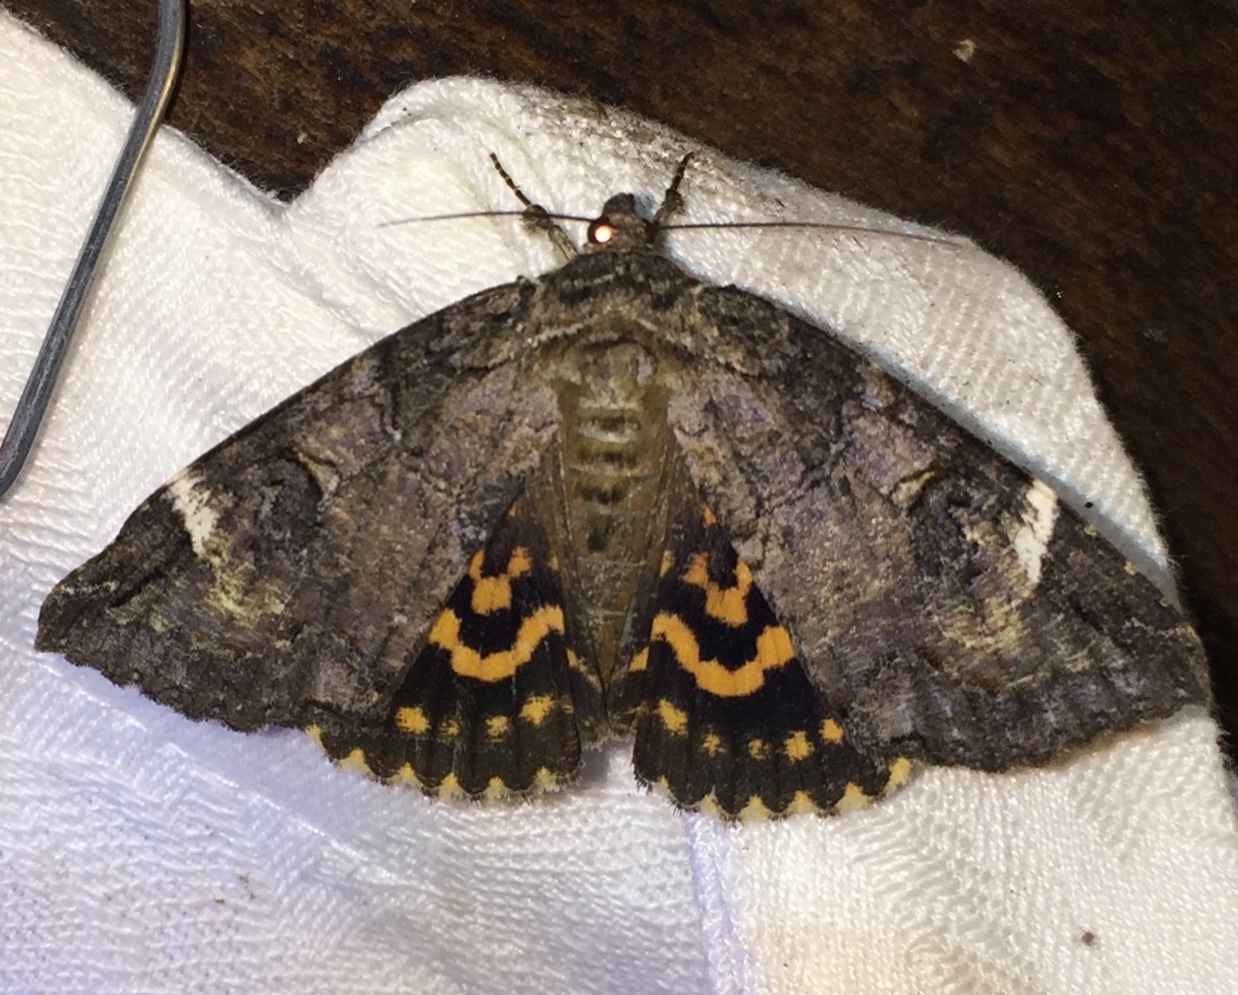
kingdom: Animalia
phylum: Arthropoda
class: Insecta
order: Lepidoptera
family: Erebidae
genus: Euparthenos
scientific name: Euparthenos nubilis
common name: Locust underwing
